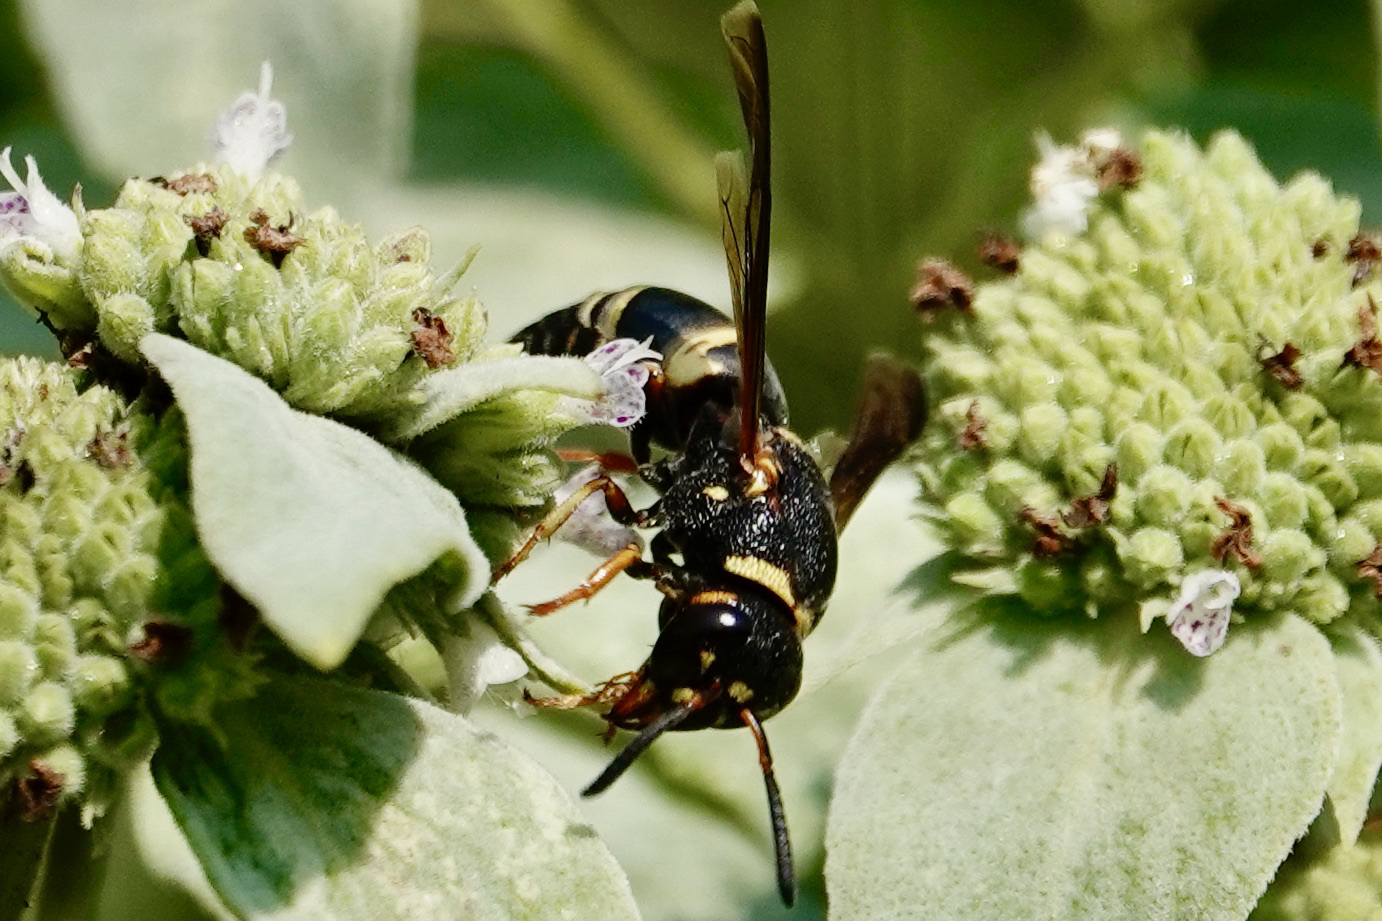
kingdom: Animalia
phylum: Arthropoda
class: Insecta
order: Hymenoptera
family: Eumenidae
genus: Euodynerus
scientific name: Euodynerus hidalgo
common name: Wasp
